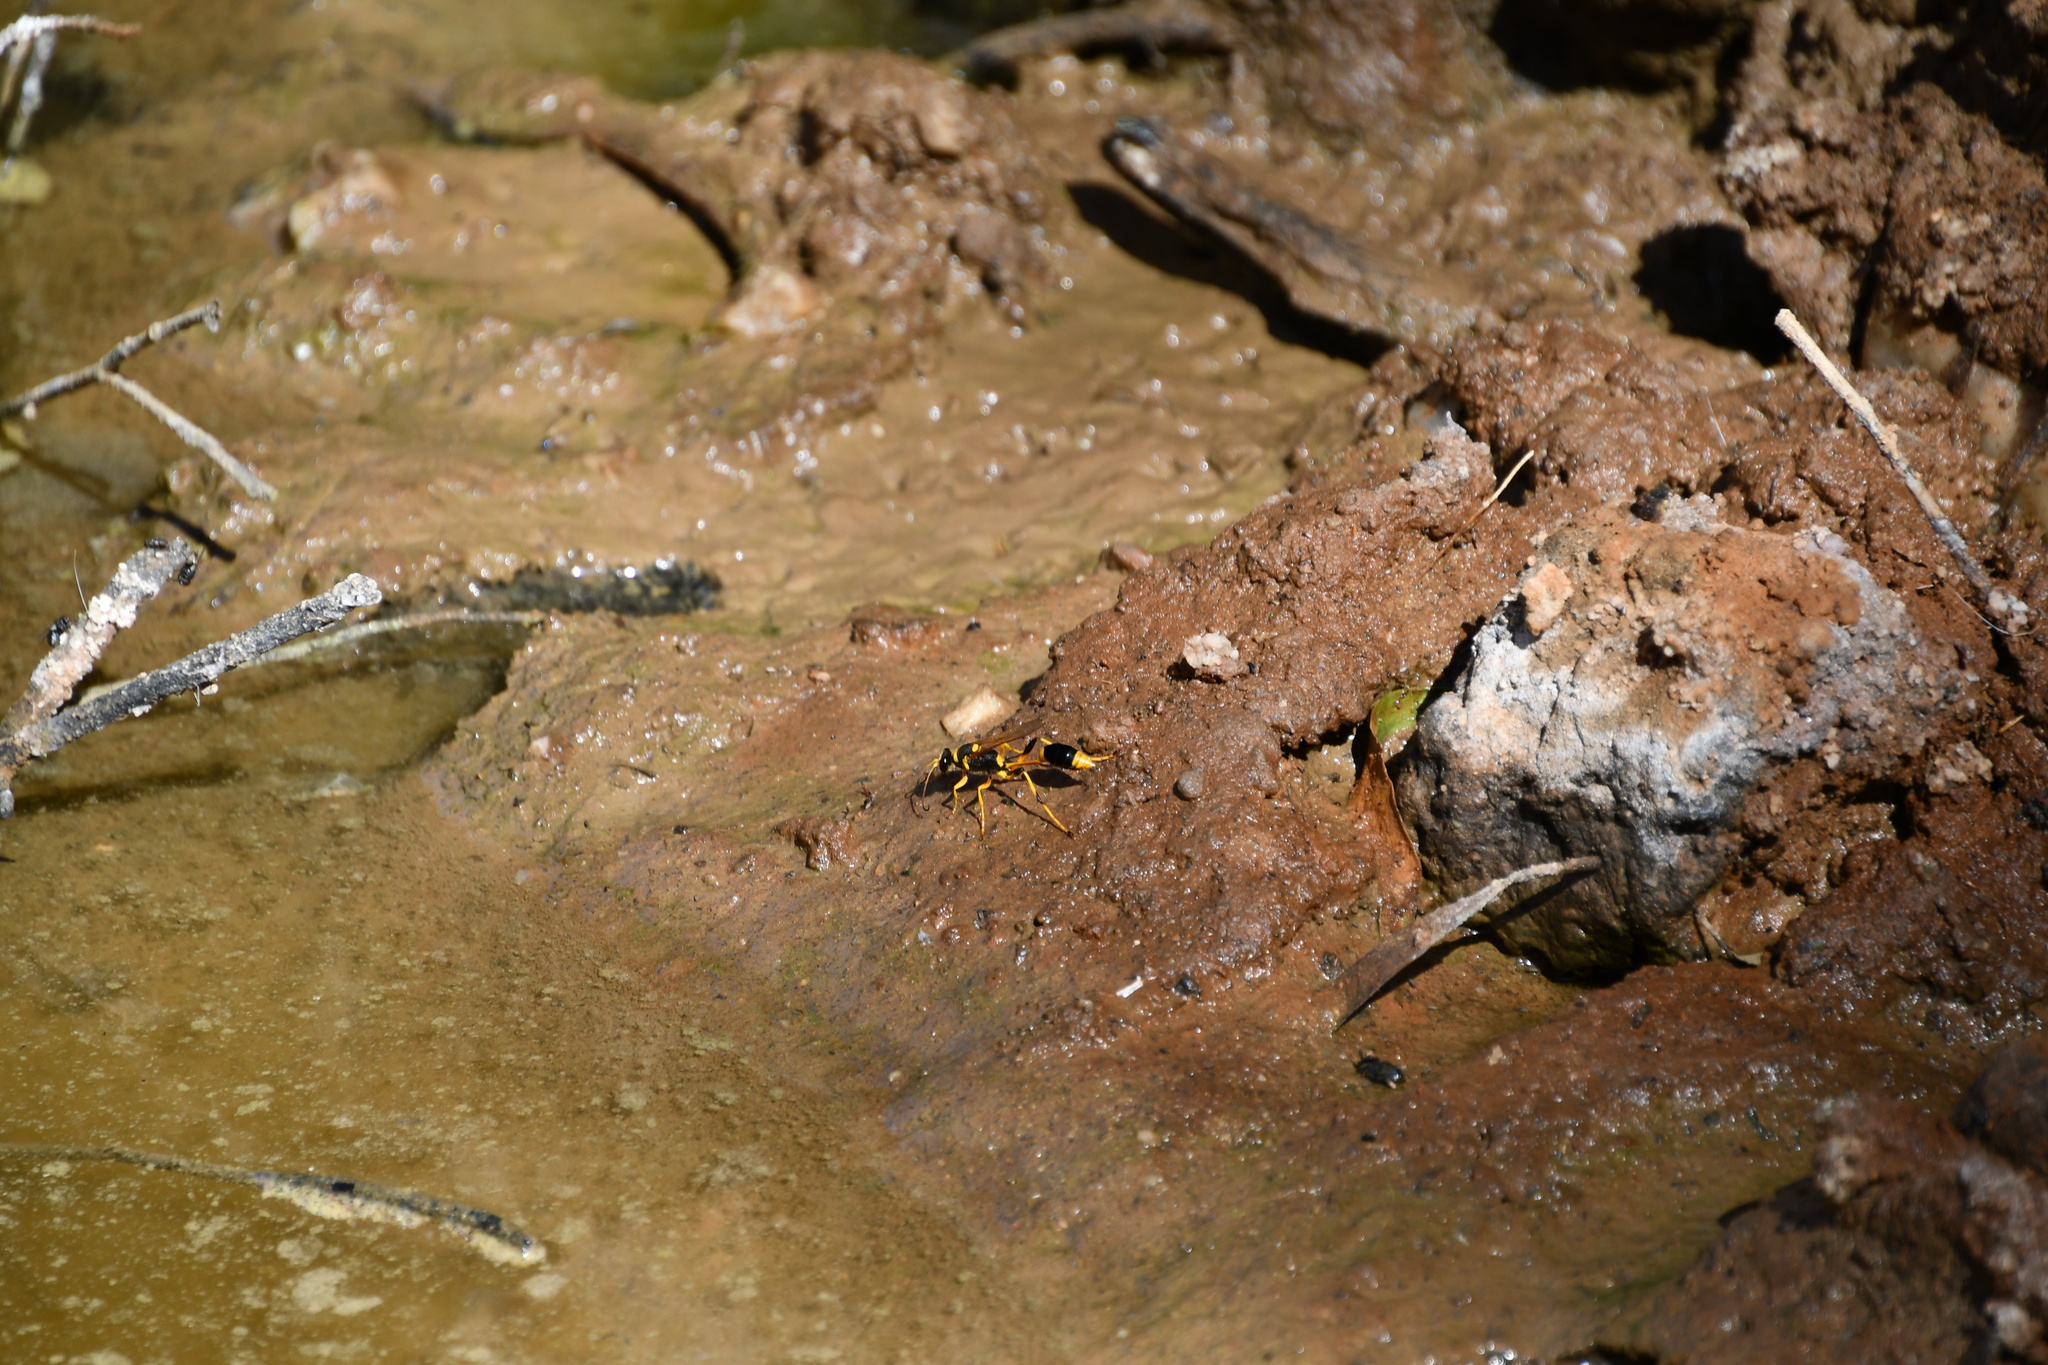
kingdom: Animalia
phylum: Arthropoda
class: Insecta
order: Hymenoptera
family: Sphecidae
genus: Sceliphron
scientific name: Sceliphron laetum
